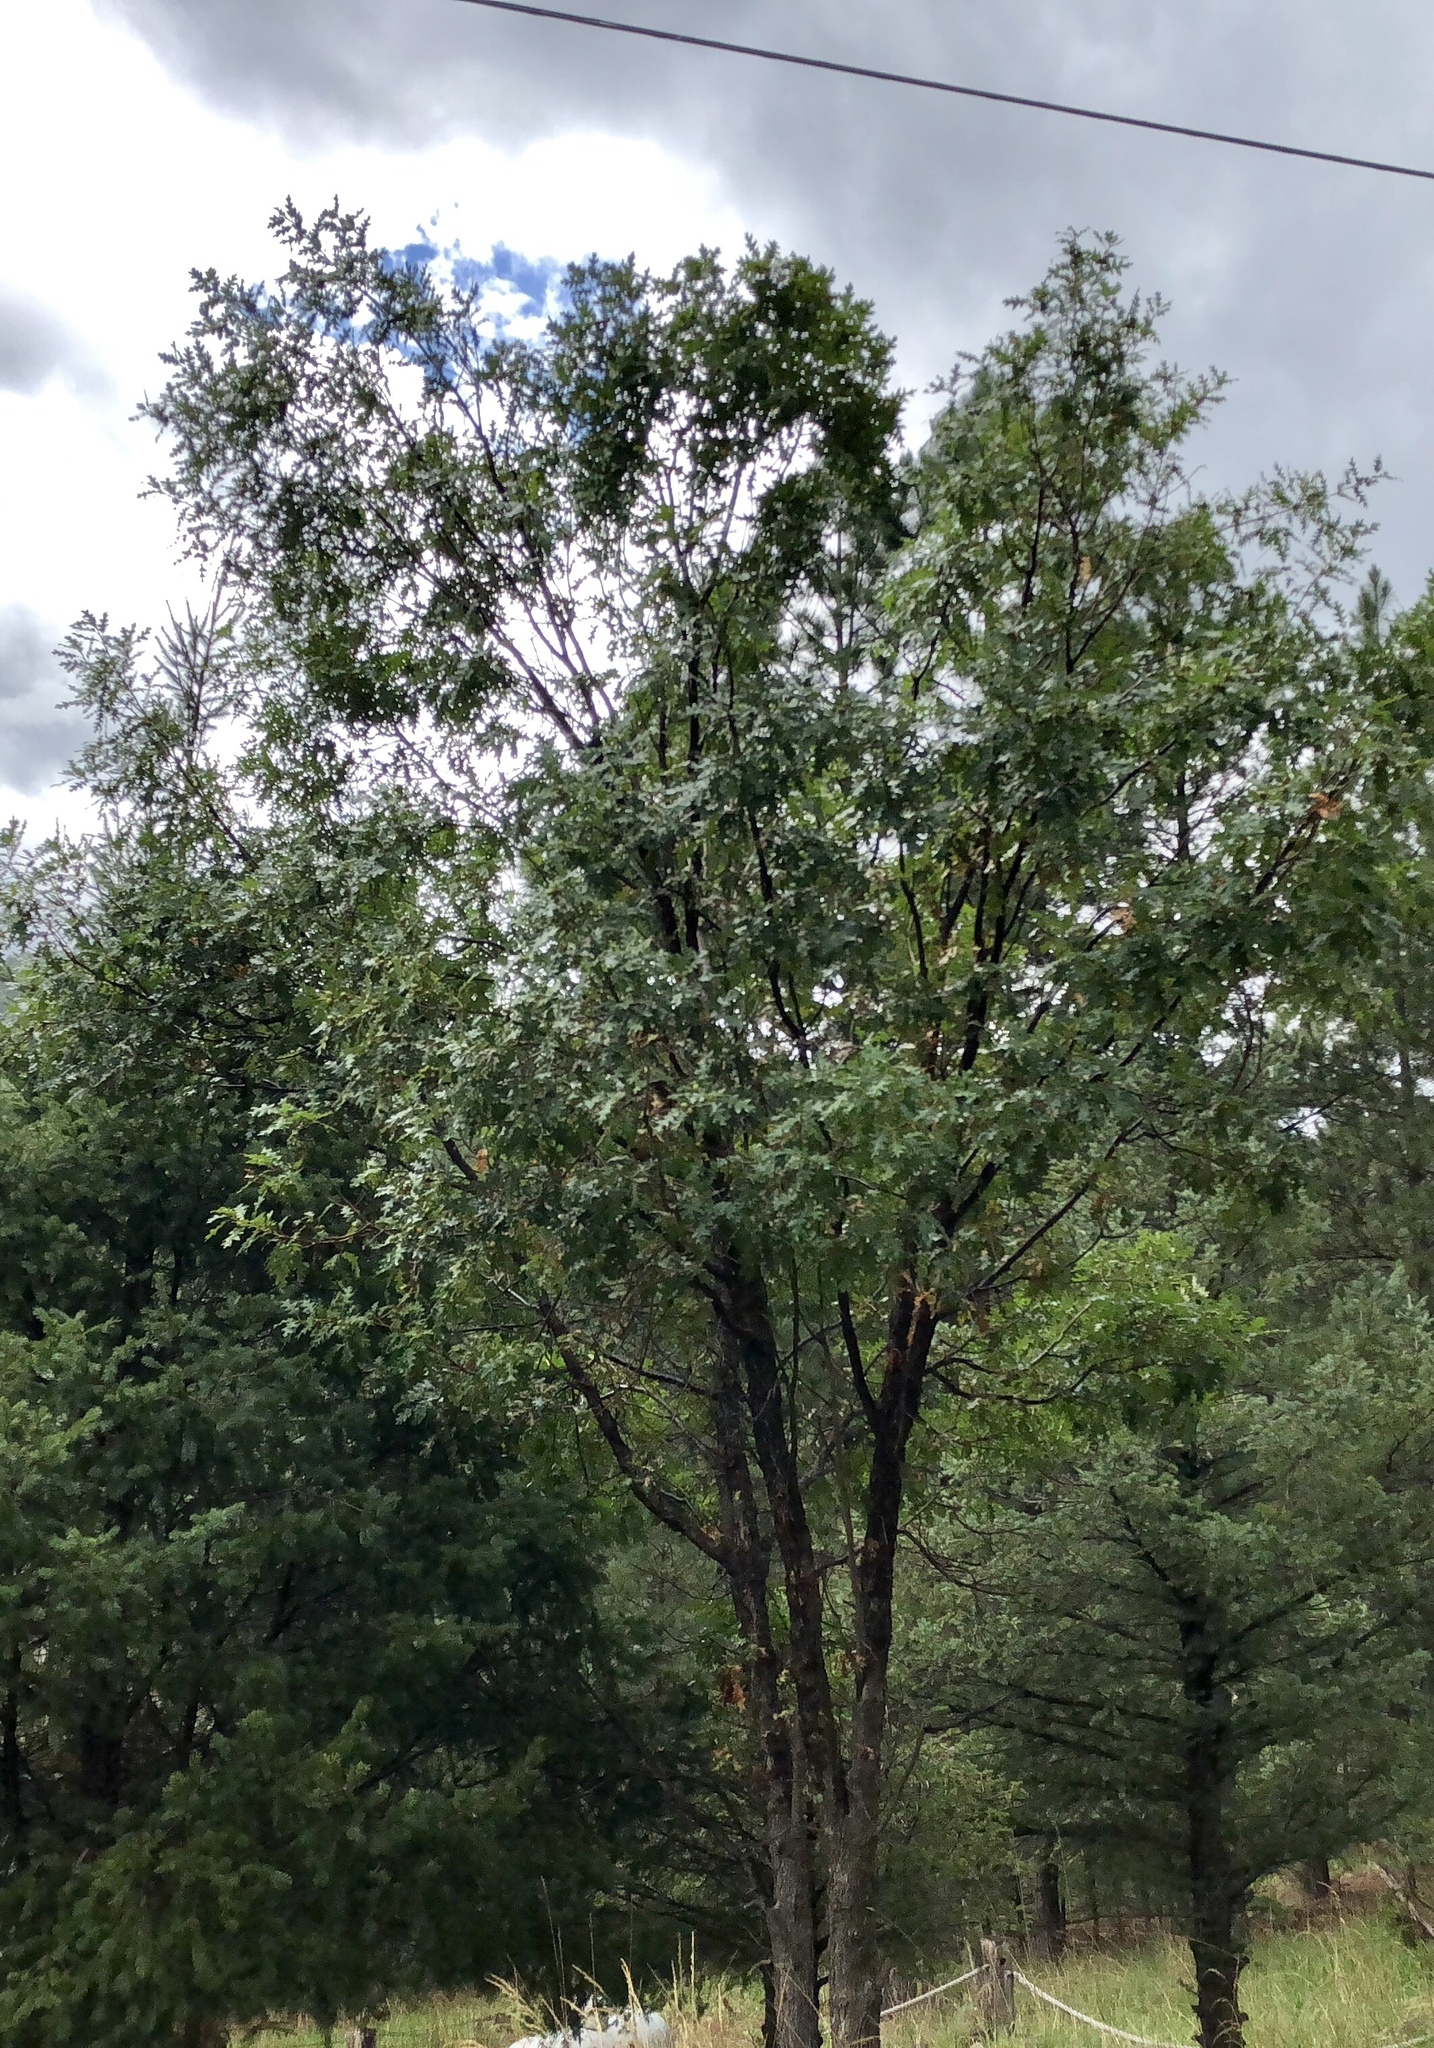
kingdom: Plantae
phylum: Tracheophyta
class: Magnoliopsida
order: Fagales
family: Fagaceae
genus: Quercus
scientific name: Quercus gambelii
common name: Gambel oak
